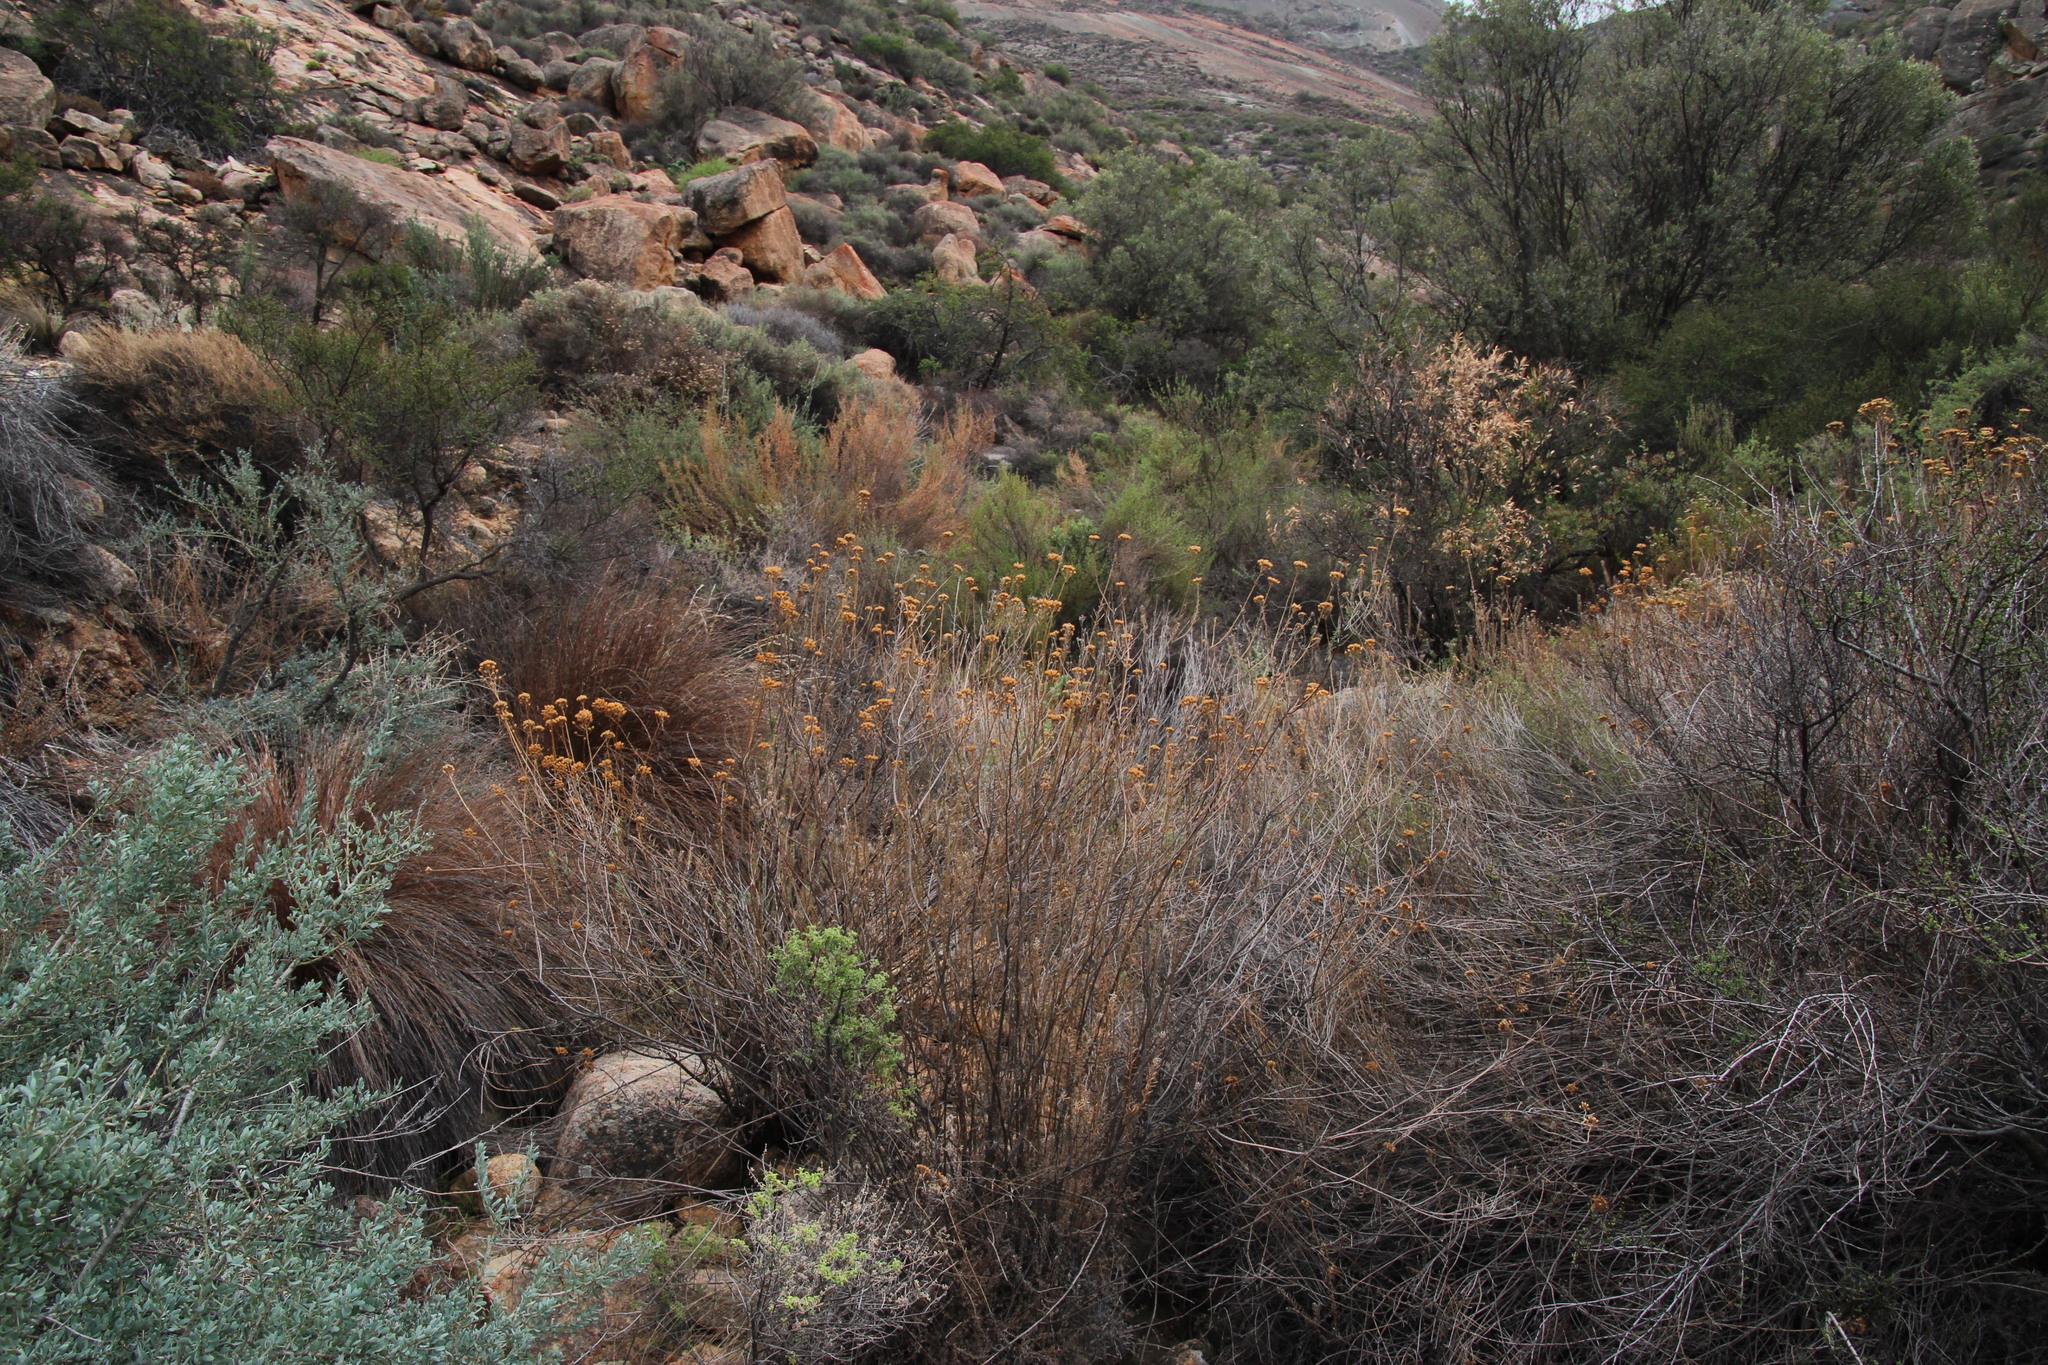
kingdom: Plantae
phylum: Tracheophyta
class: Magnoliopsida
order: Asterales
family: Asteraceae
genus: Athanasia
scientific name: Athanasia flexuosa
